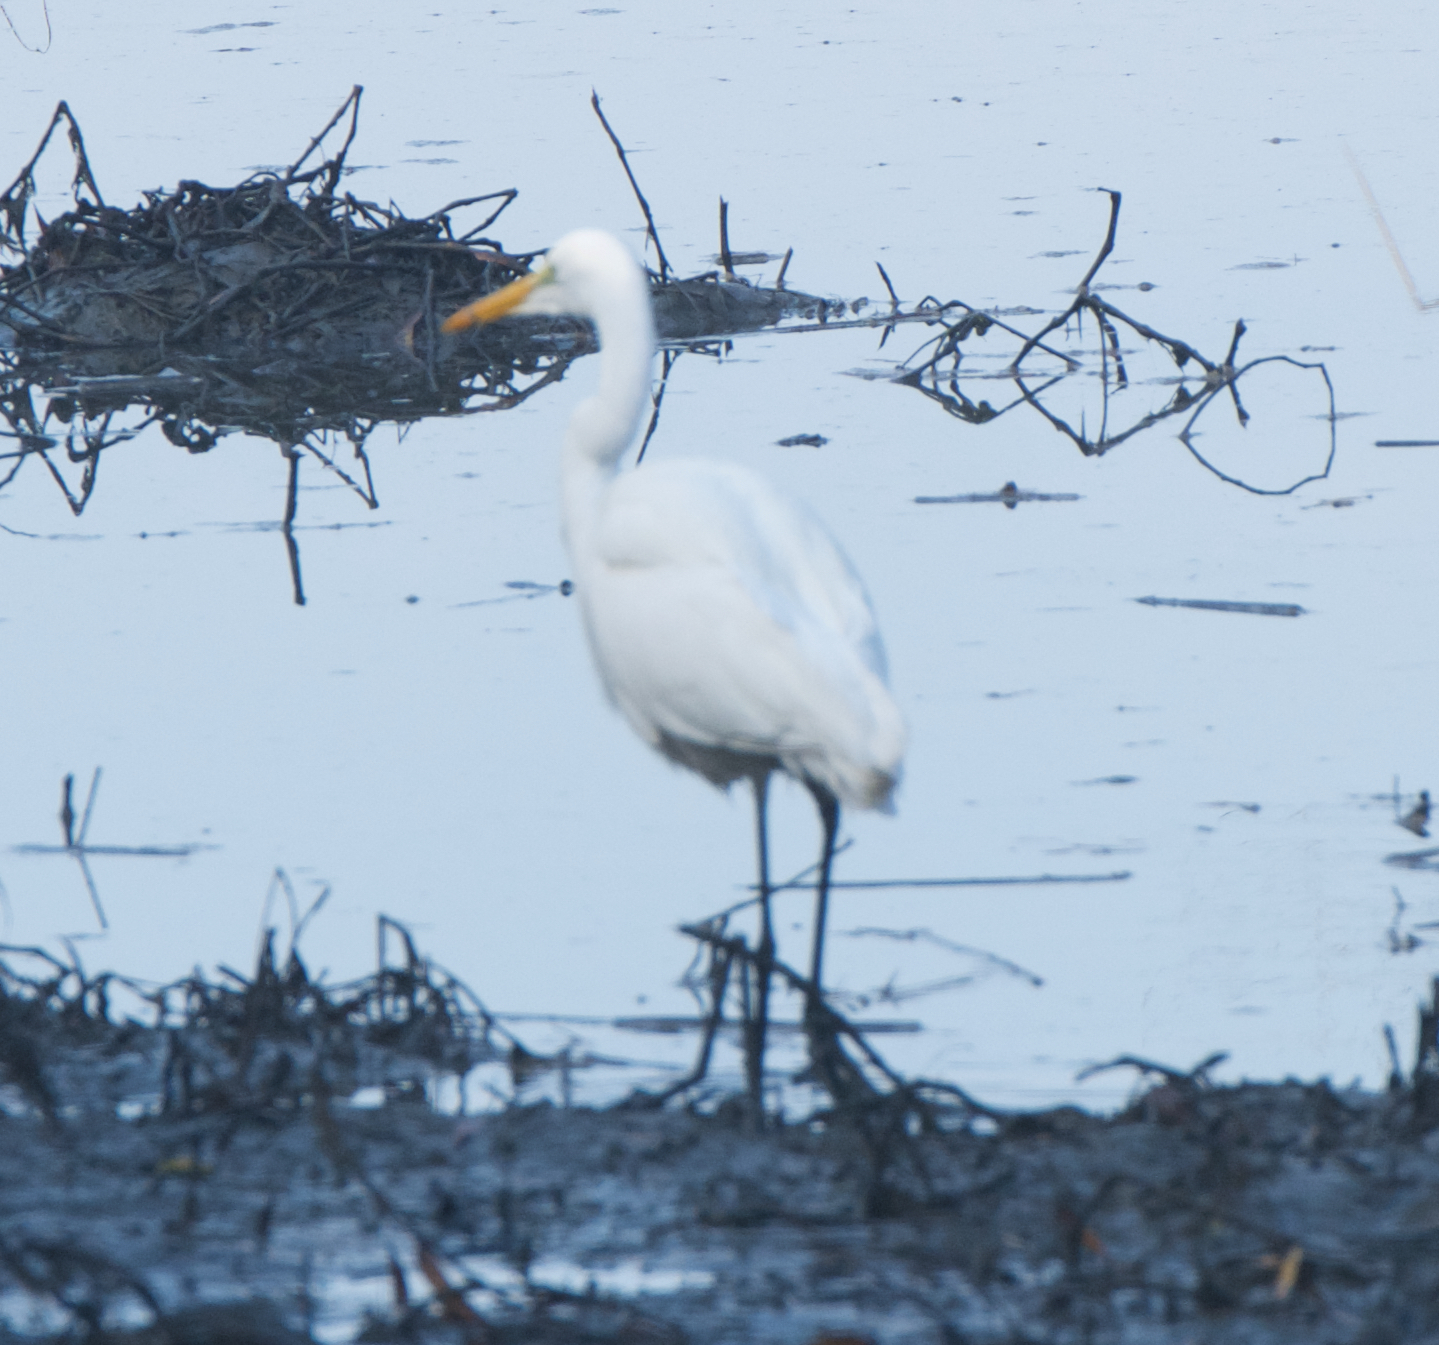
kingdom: Animalia
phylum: Chordata
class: Aves
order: Pelecaniformes
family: Ardeidae
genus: Ardea
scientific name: Ardea alba
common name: Great egret
